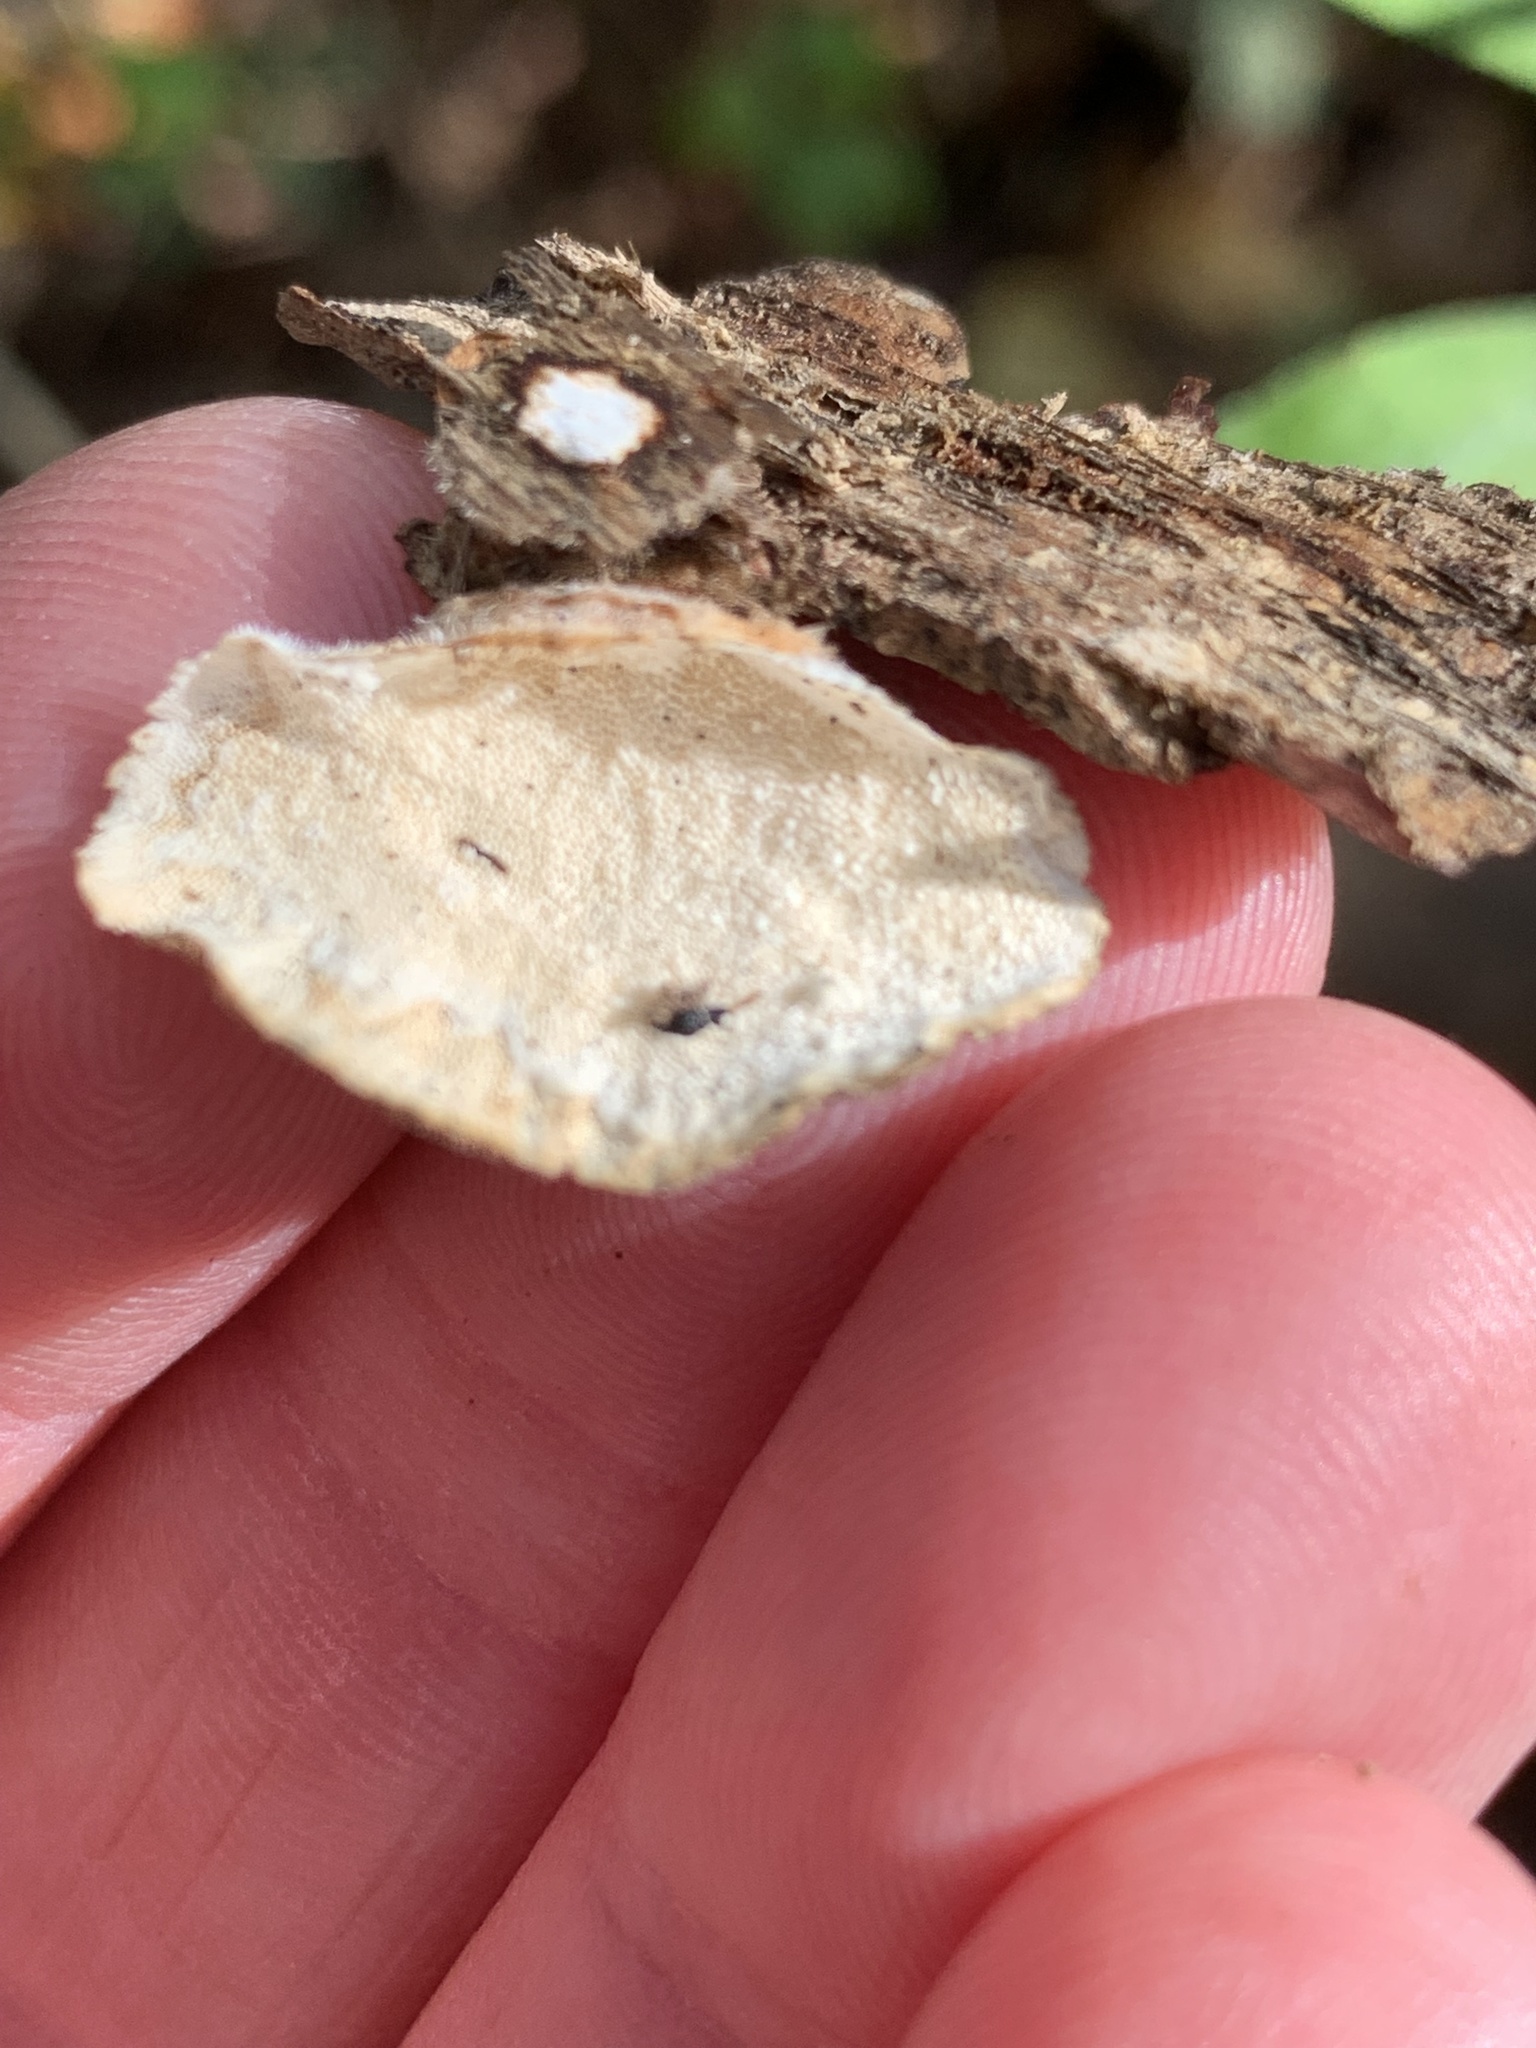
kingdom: Fungi
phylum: Basidiomycota
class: Agaricomycetes
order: Polyporales
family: Polyporaceae
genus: Trametes
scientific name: Trametes versicolor
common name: Turkeytail
